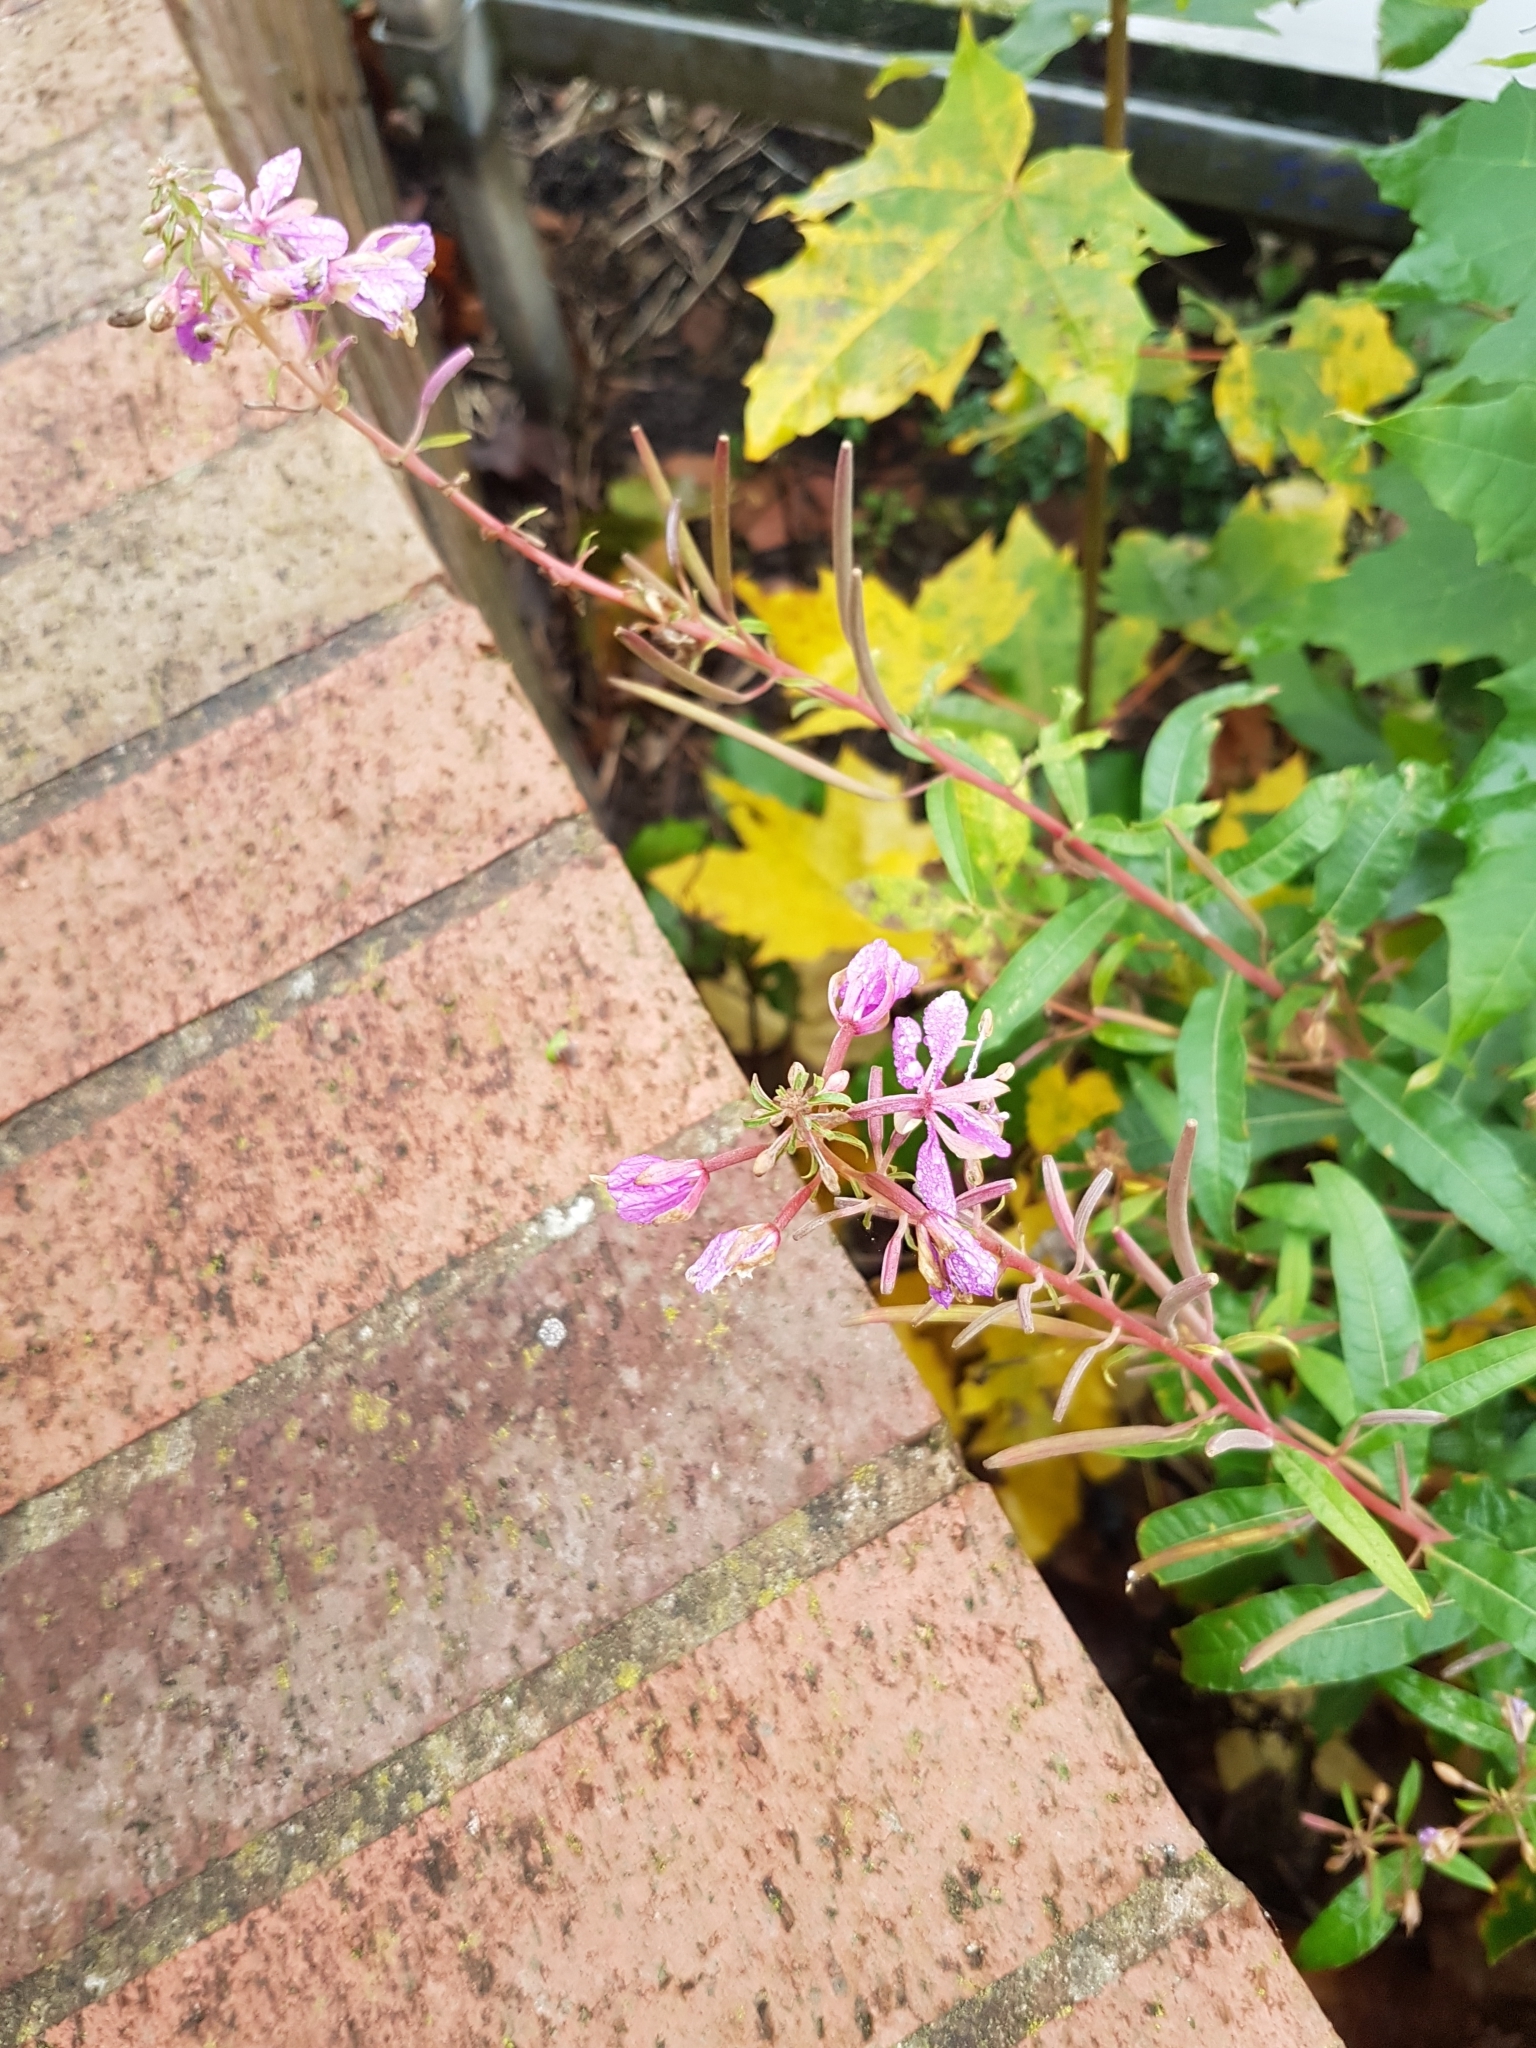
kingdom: Plantae
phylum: Tracheophyta
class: Magnoliopsida
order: Myrtales
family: Onagraceae
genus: Chamaenerion
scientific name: Chamaenerion angustifolium
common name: Fireweed
